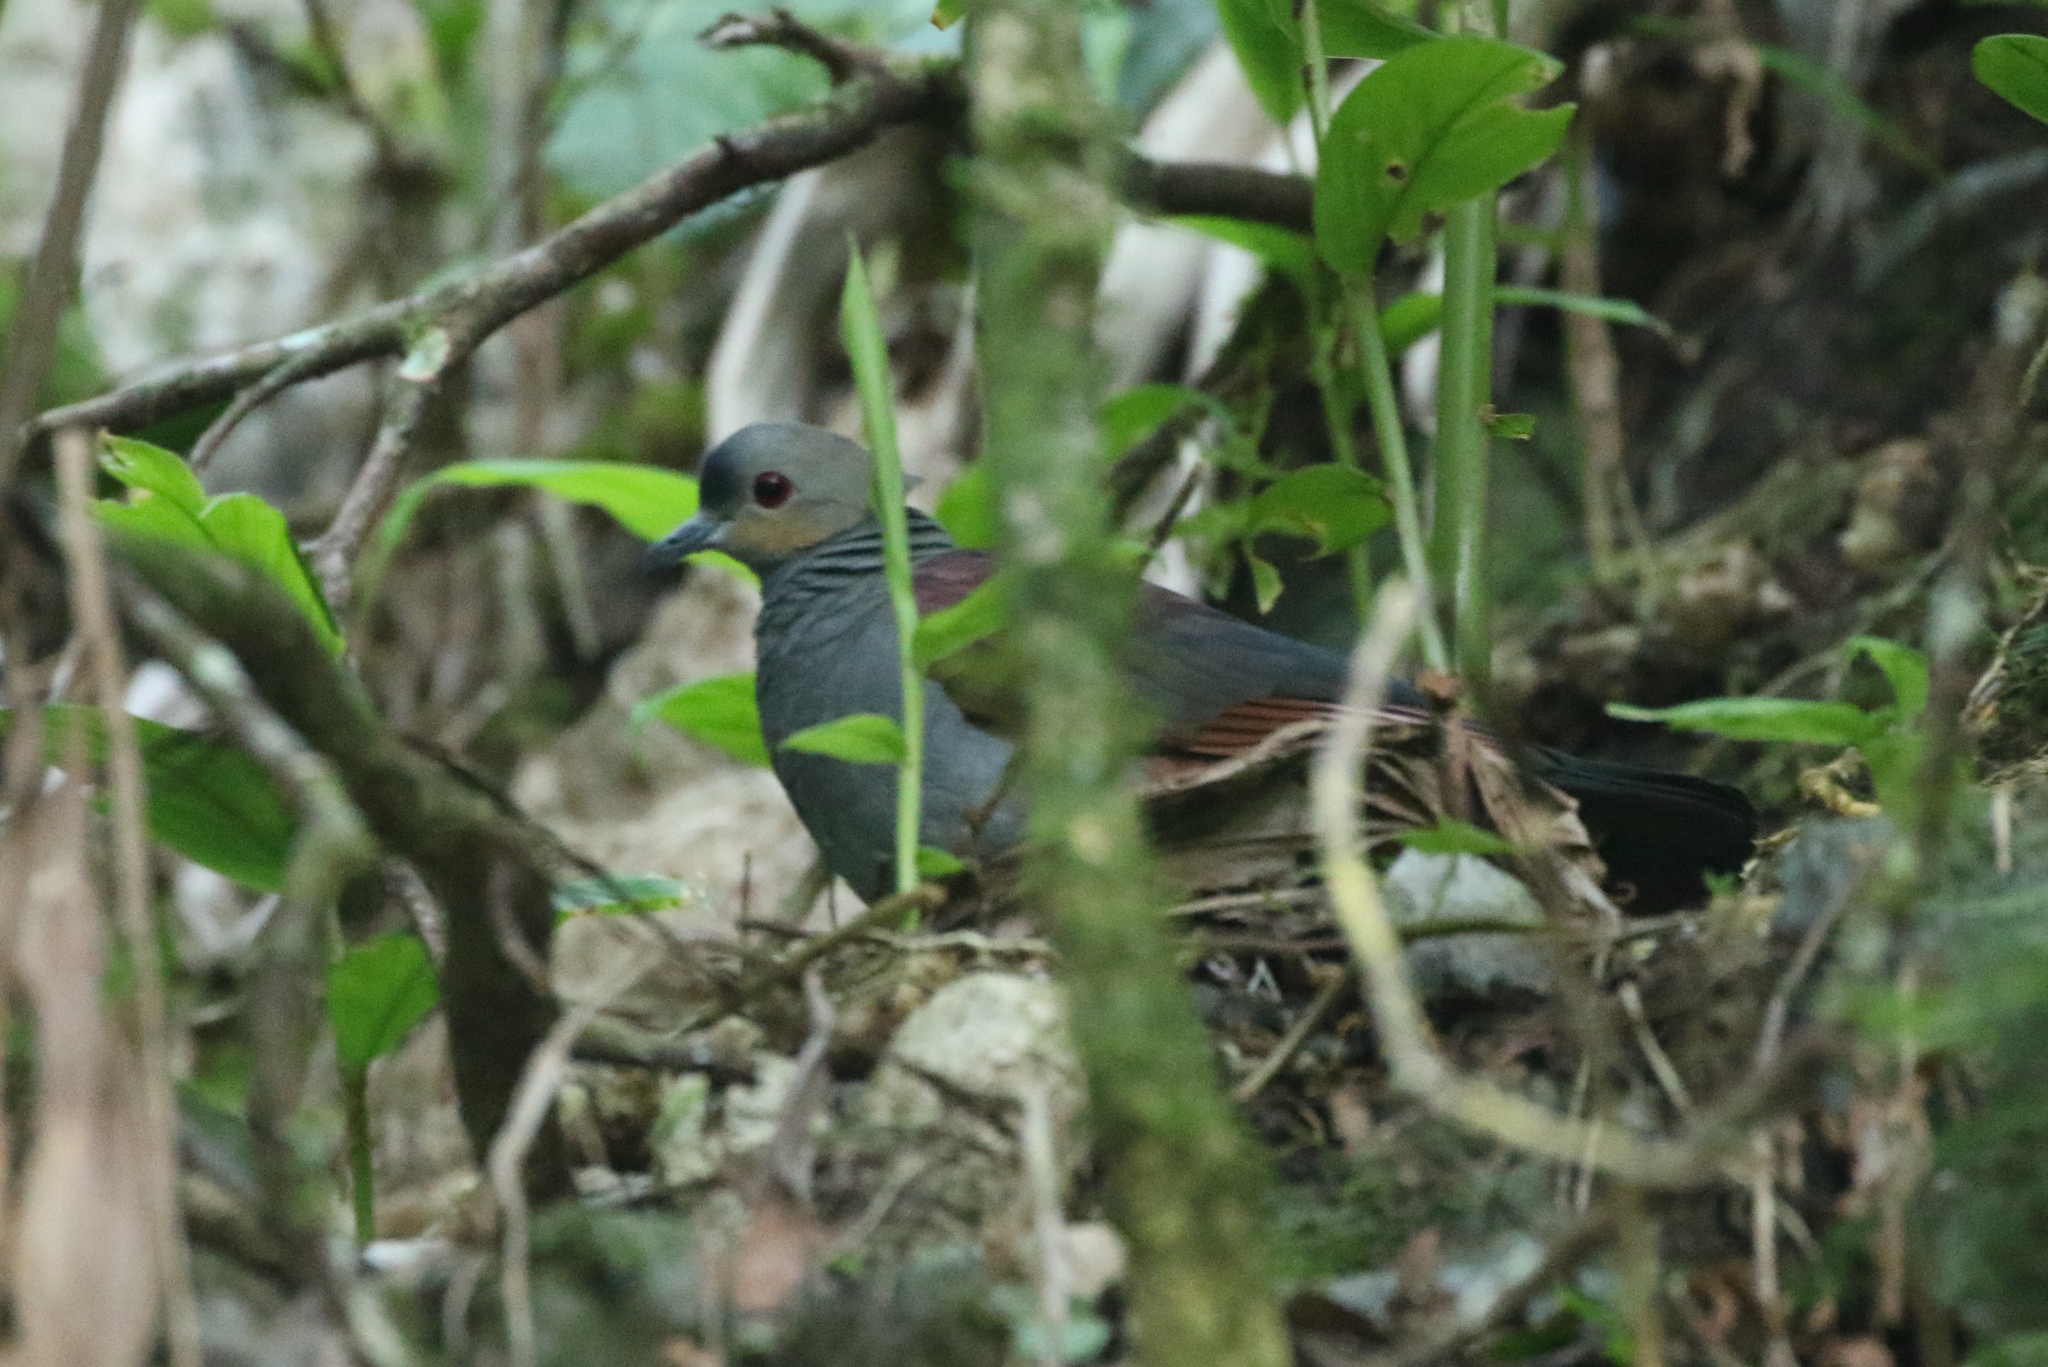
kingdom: Animalia
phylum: Chordata
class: Aves
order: Columbiformes
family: Columbidae
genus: Geotrygon
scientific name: Geotrygon versicolor
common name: Crested quail-dove
